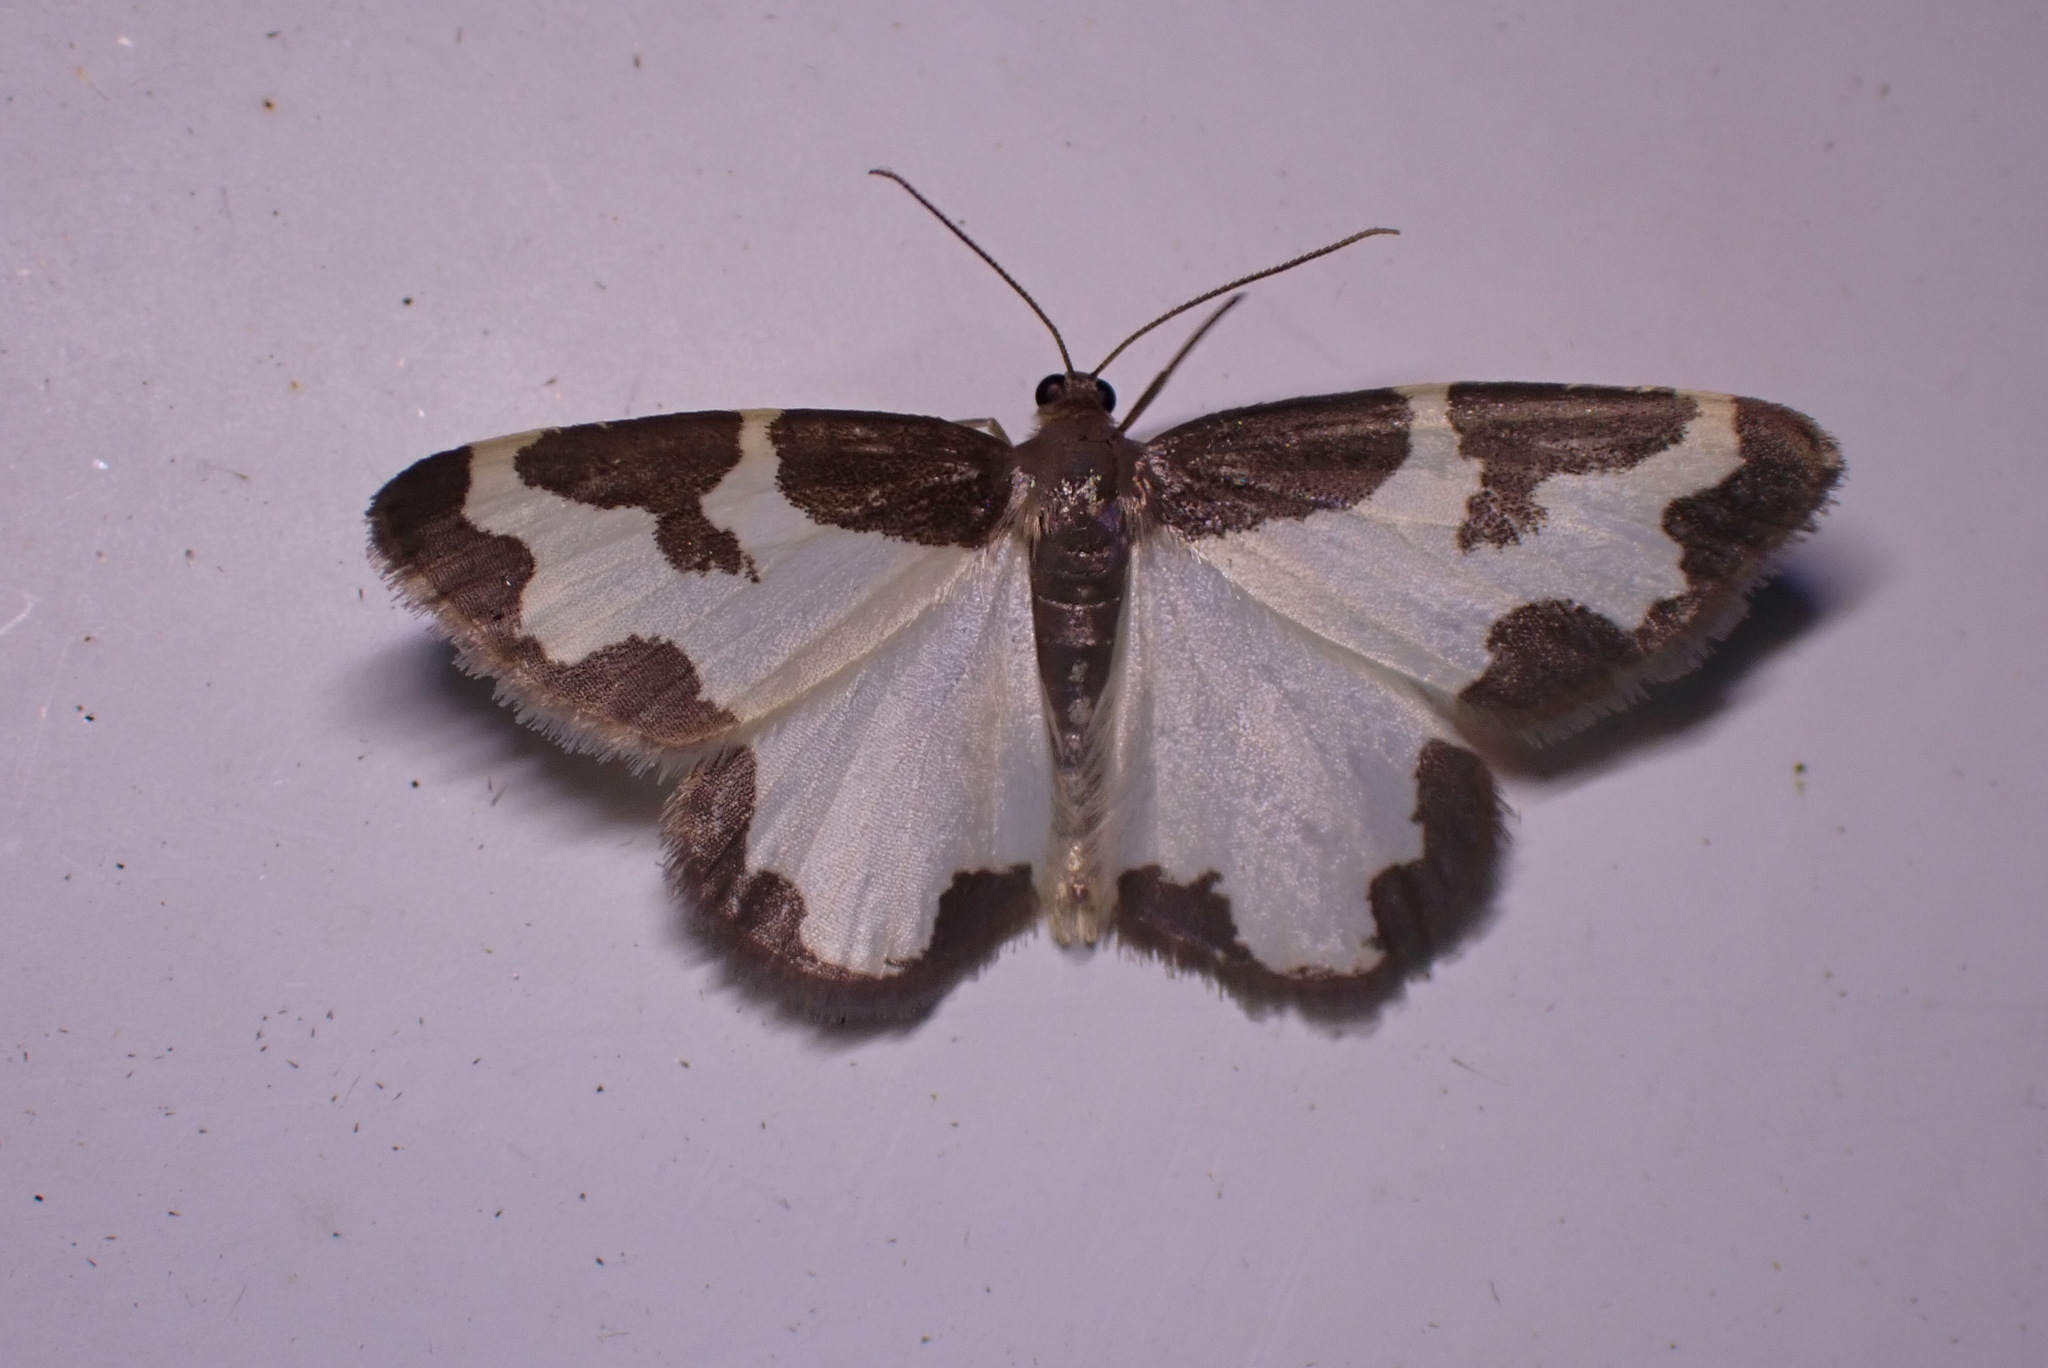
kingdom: Animalia
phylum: Arthropoda
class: Insecta
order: Lepidoptera
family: Geometridae
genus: Lomaspilis
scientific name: Lomaspilis marginata
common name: Clouded border
